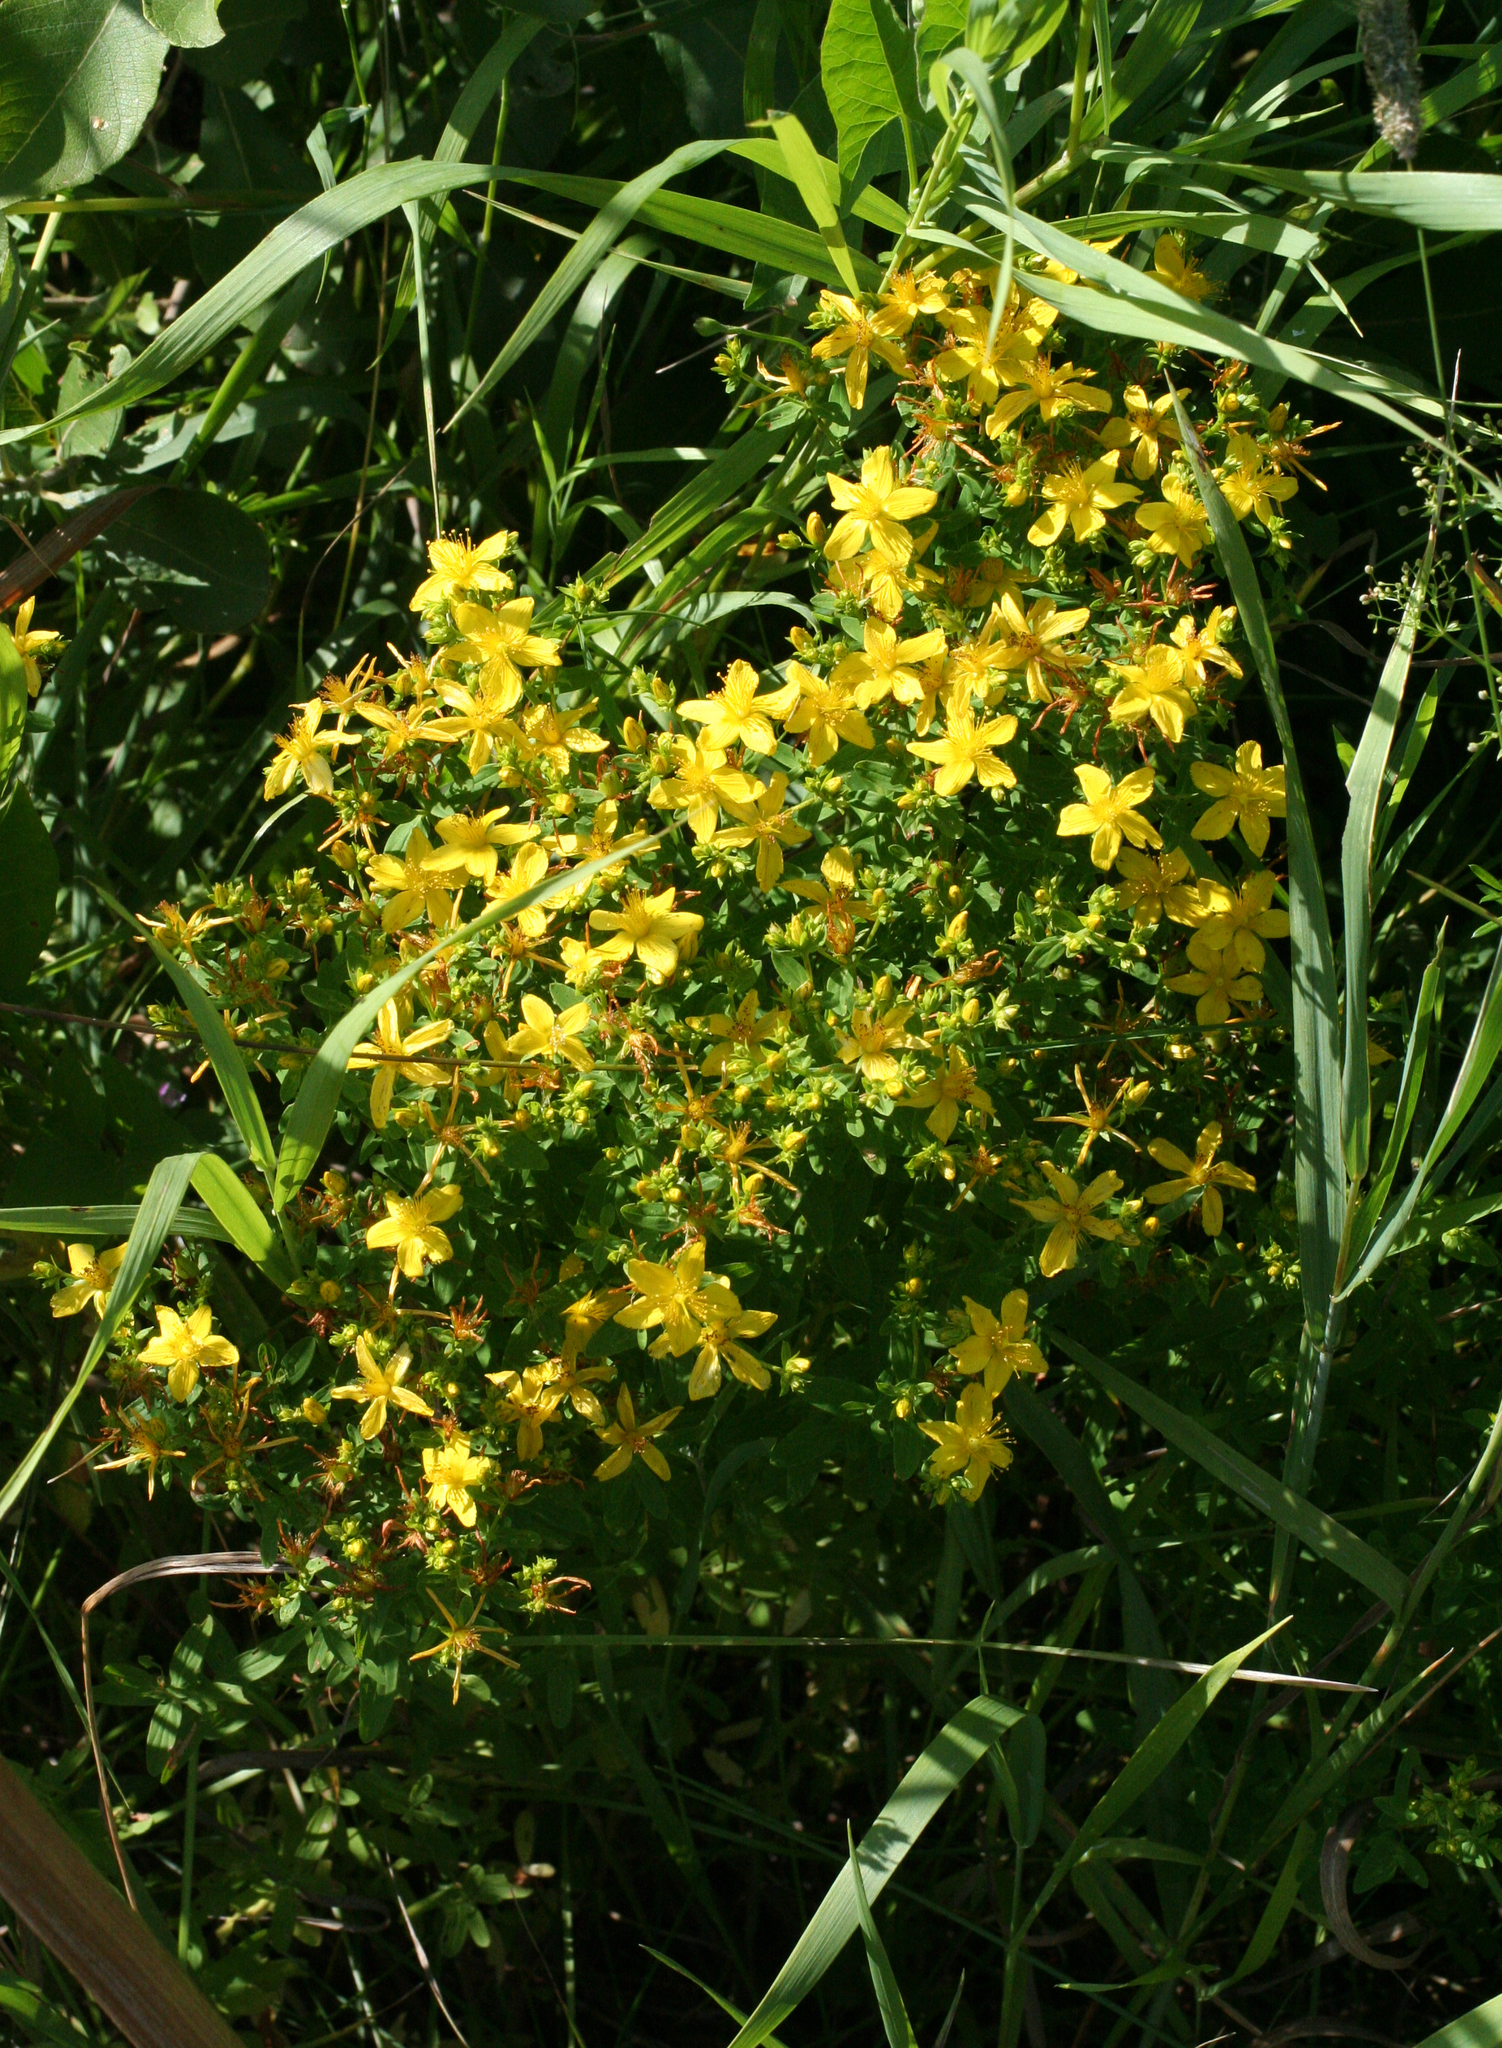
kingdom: Plantae
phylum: Tracheophyta
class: Magnoliopsida
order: Malpighiales
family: Hypericaceae
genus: Hypericum
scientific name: Hypericum perforatum
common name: Common st. johnswort
